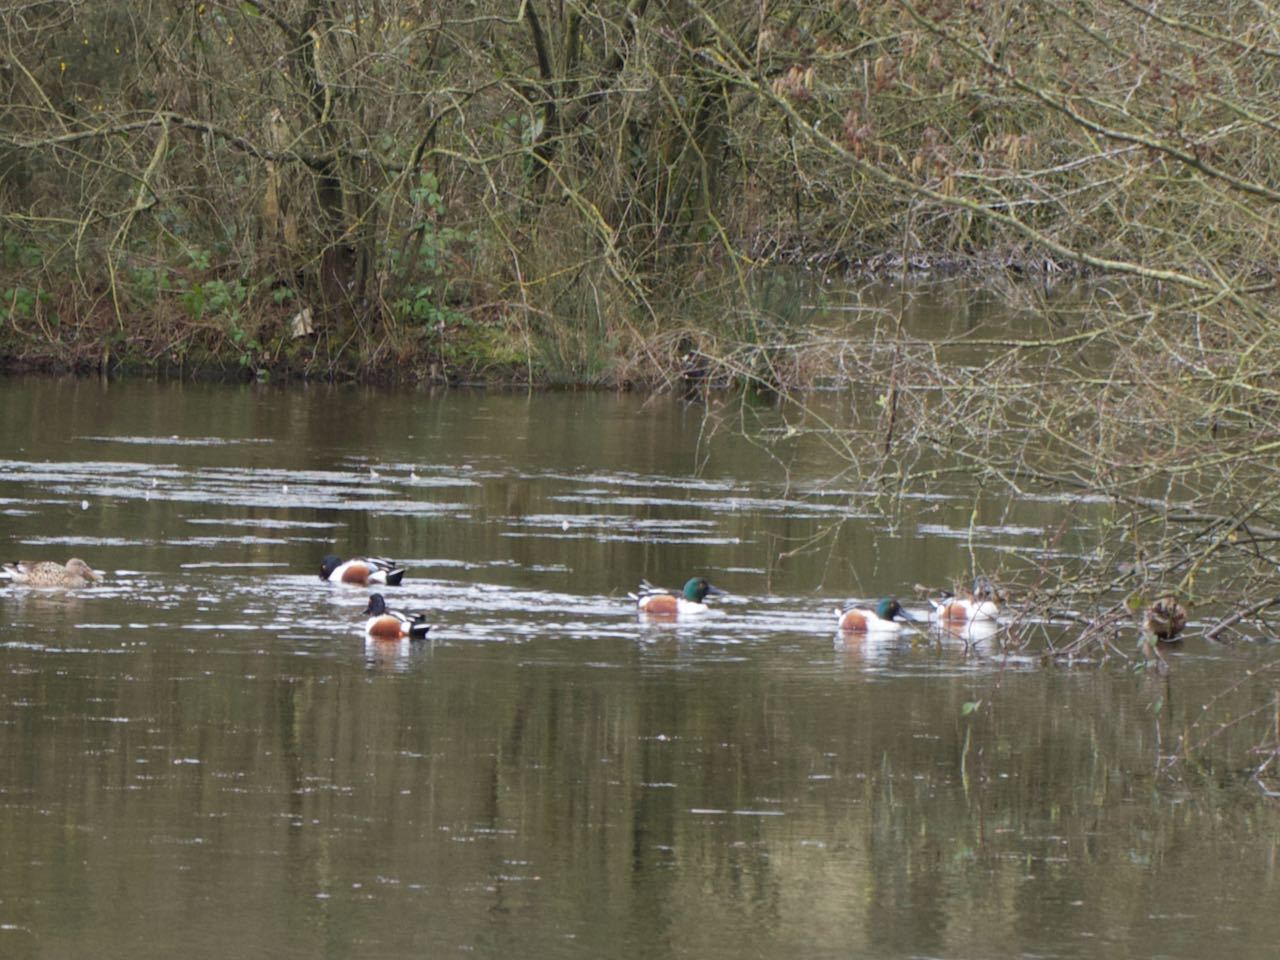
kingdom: Animalia
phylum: Chordata
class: Aves
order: Anseriformes
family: Anatidae
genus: Spatula
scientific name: Spatula clypeata
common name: Northern shoveler
